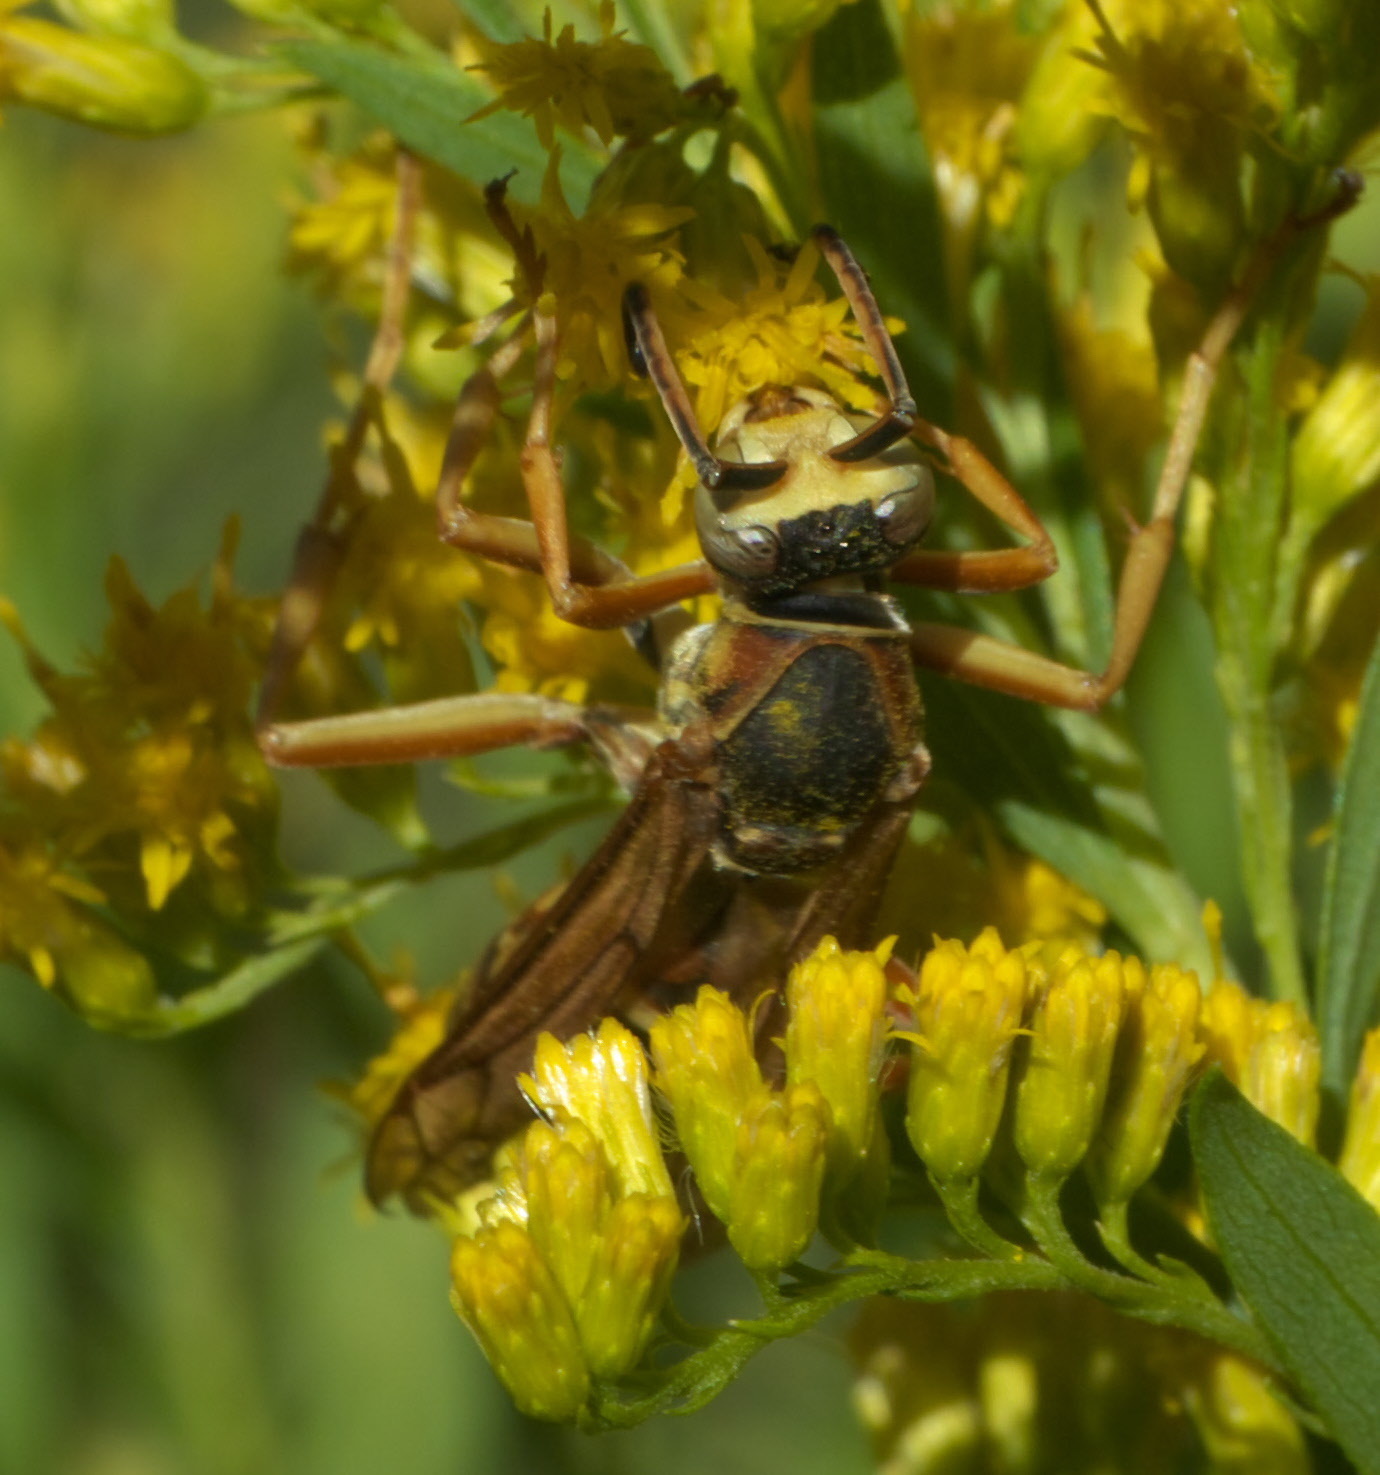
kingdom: Animalia
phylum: Arthropoda
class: Insecta
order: Hymenoptera
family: Eumenidae
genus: Polistes
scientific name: Polistes fuscatus
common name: Dark paper wasp
